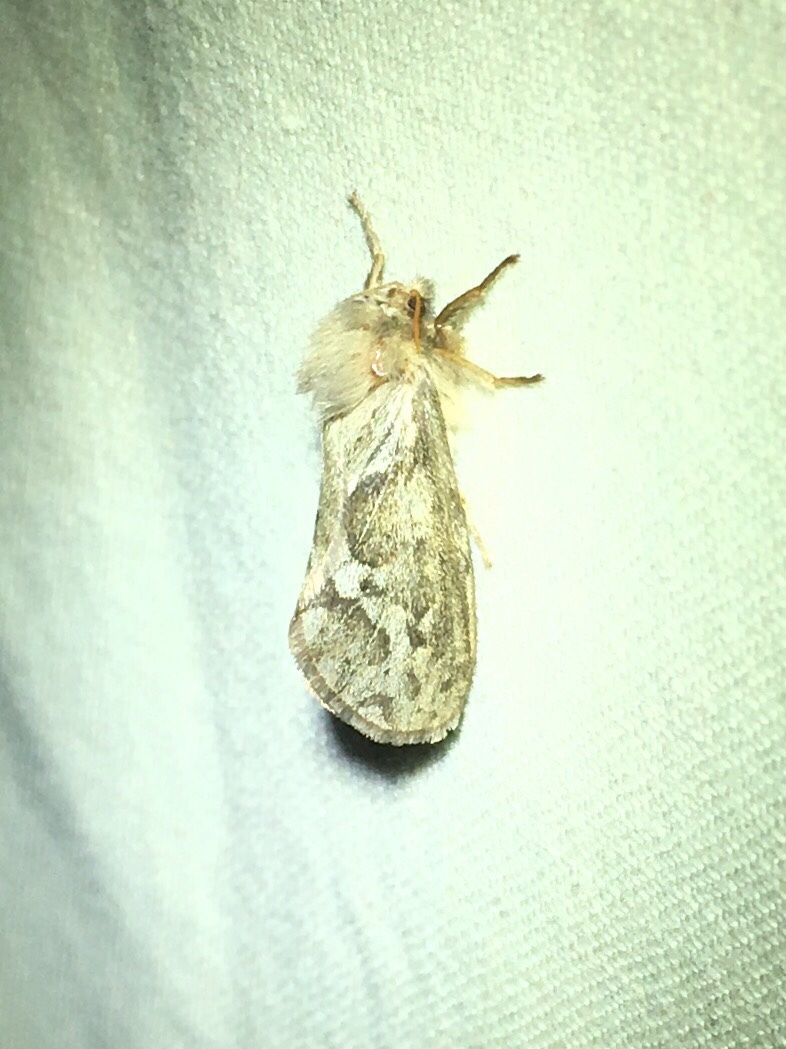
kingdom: Animalia
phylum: Arthropoda
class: Insecta
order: Lepidoptera
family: Hepialidae
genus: Korscheltellus
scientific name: Korscheltellus lupulina
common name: Common swift
